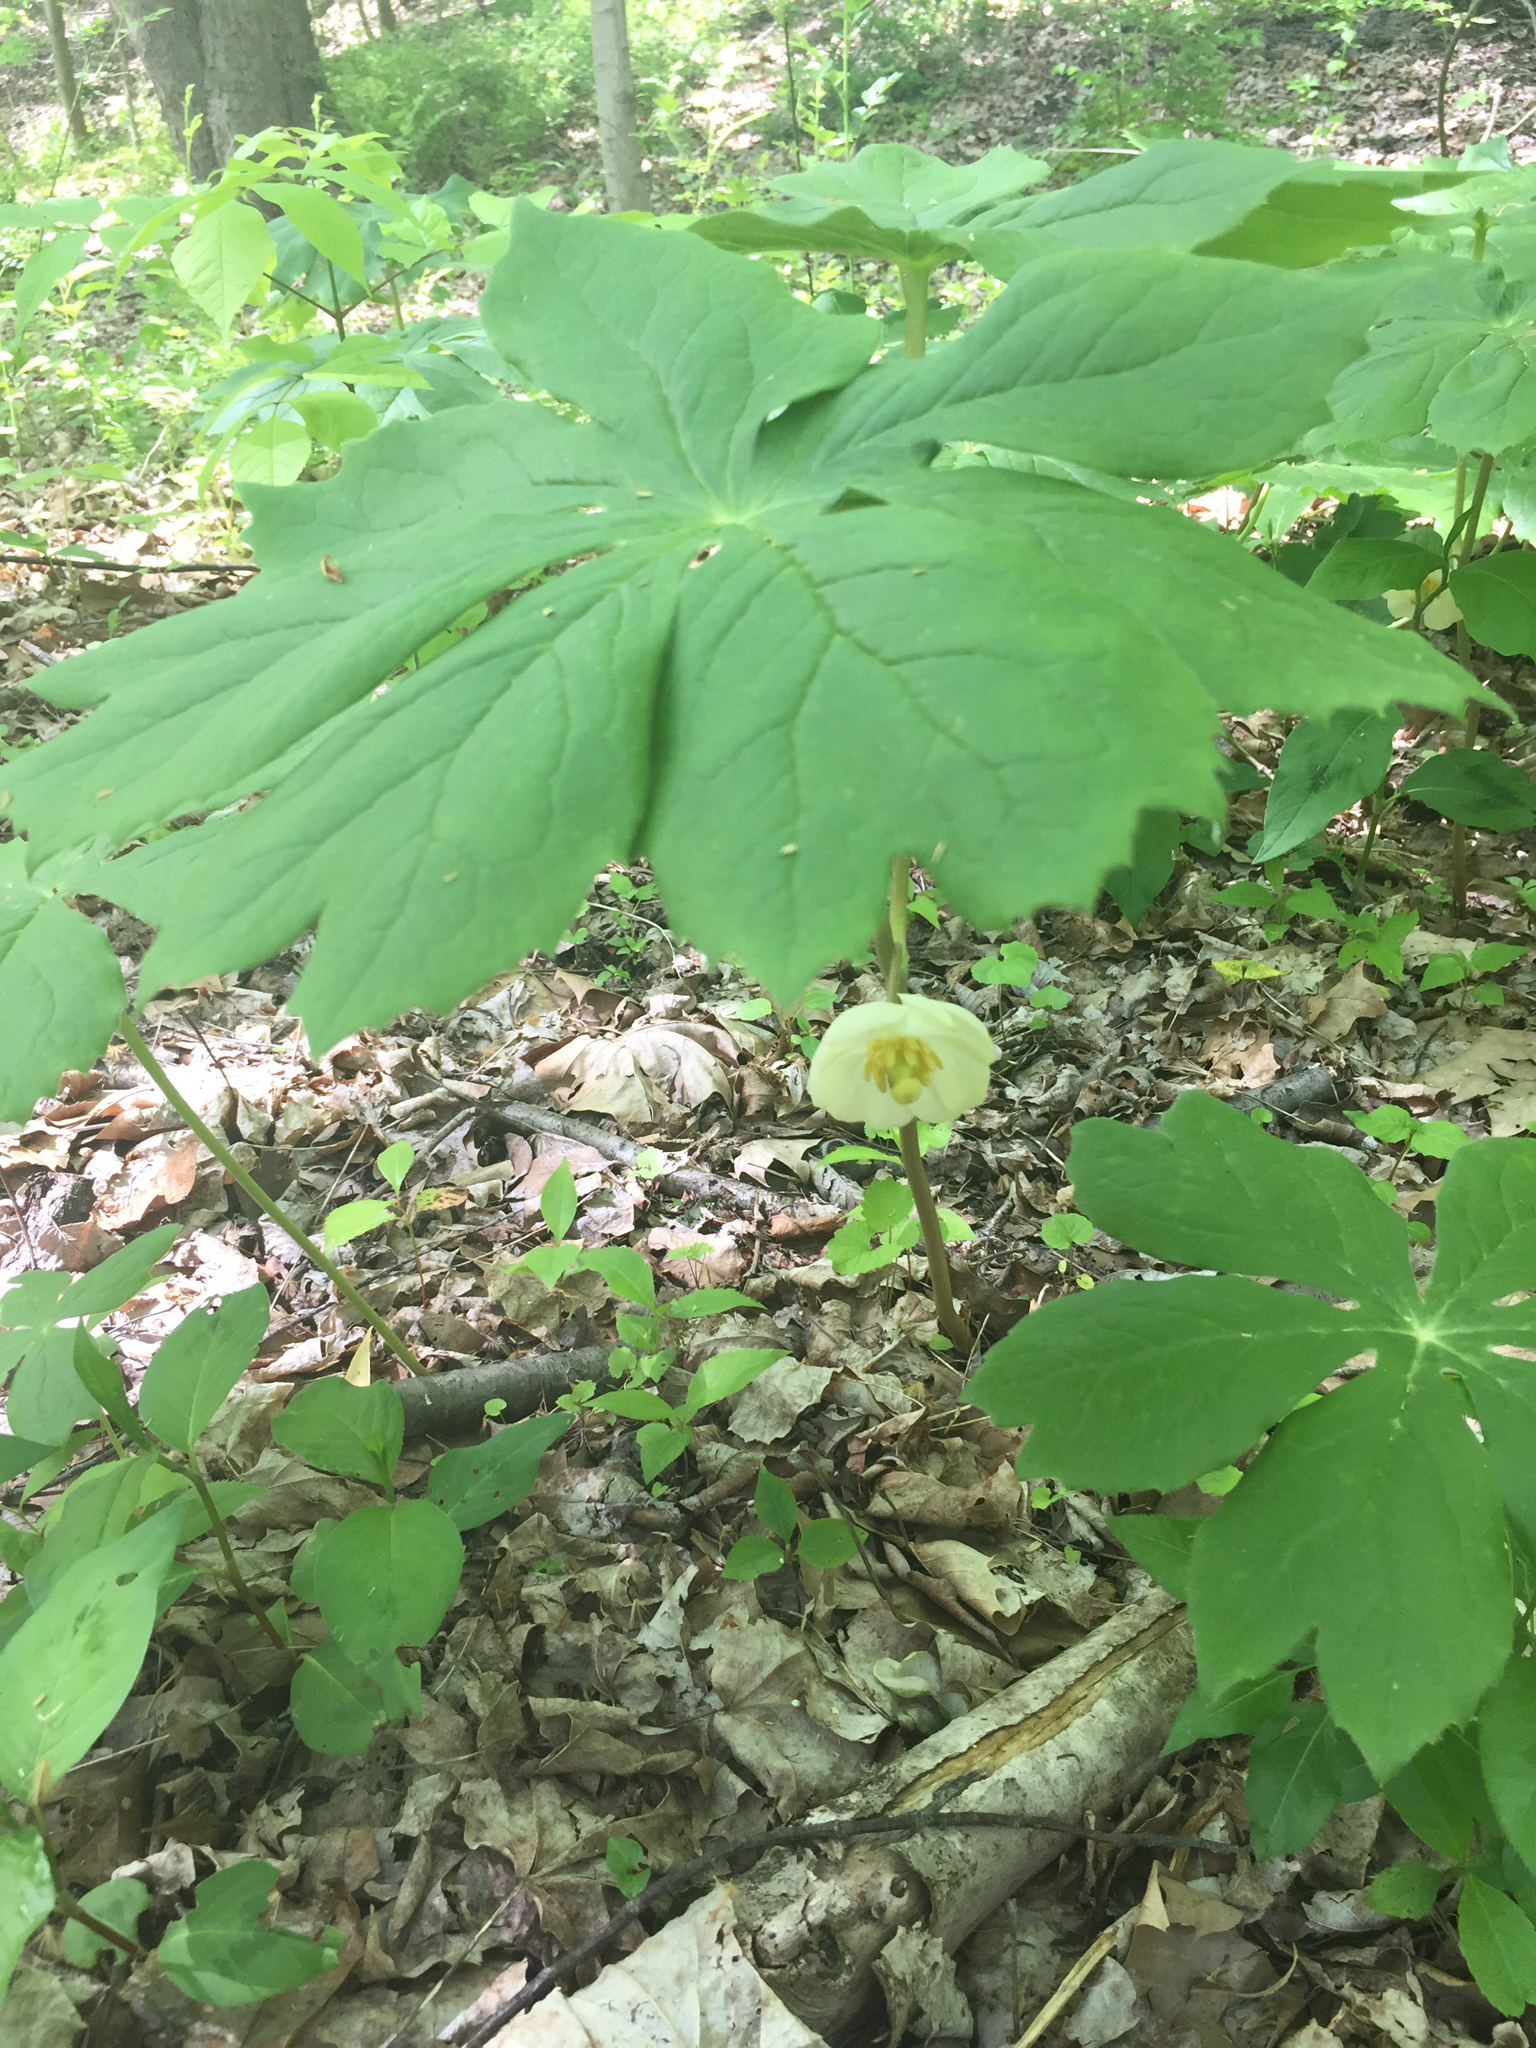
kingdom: Plantae
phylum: Tracheophyta
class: Magnoliopsida
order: Ranunculales
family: Berberidaceae
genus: Podophyllum
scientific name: Podophyllum peltatum
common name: Wild mandrake
